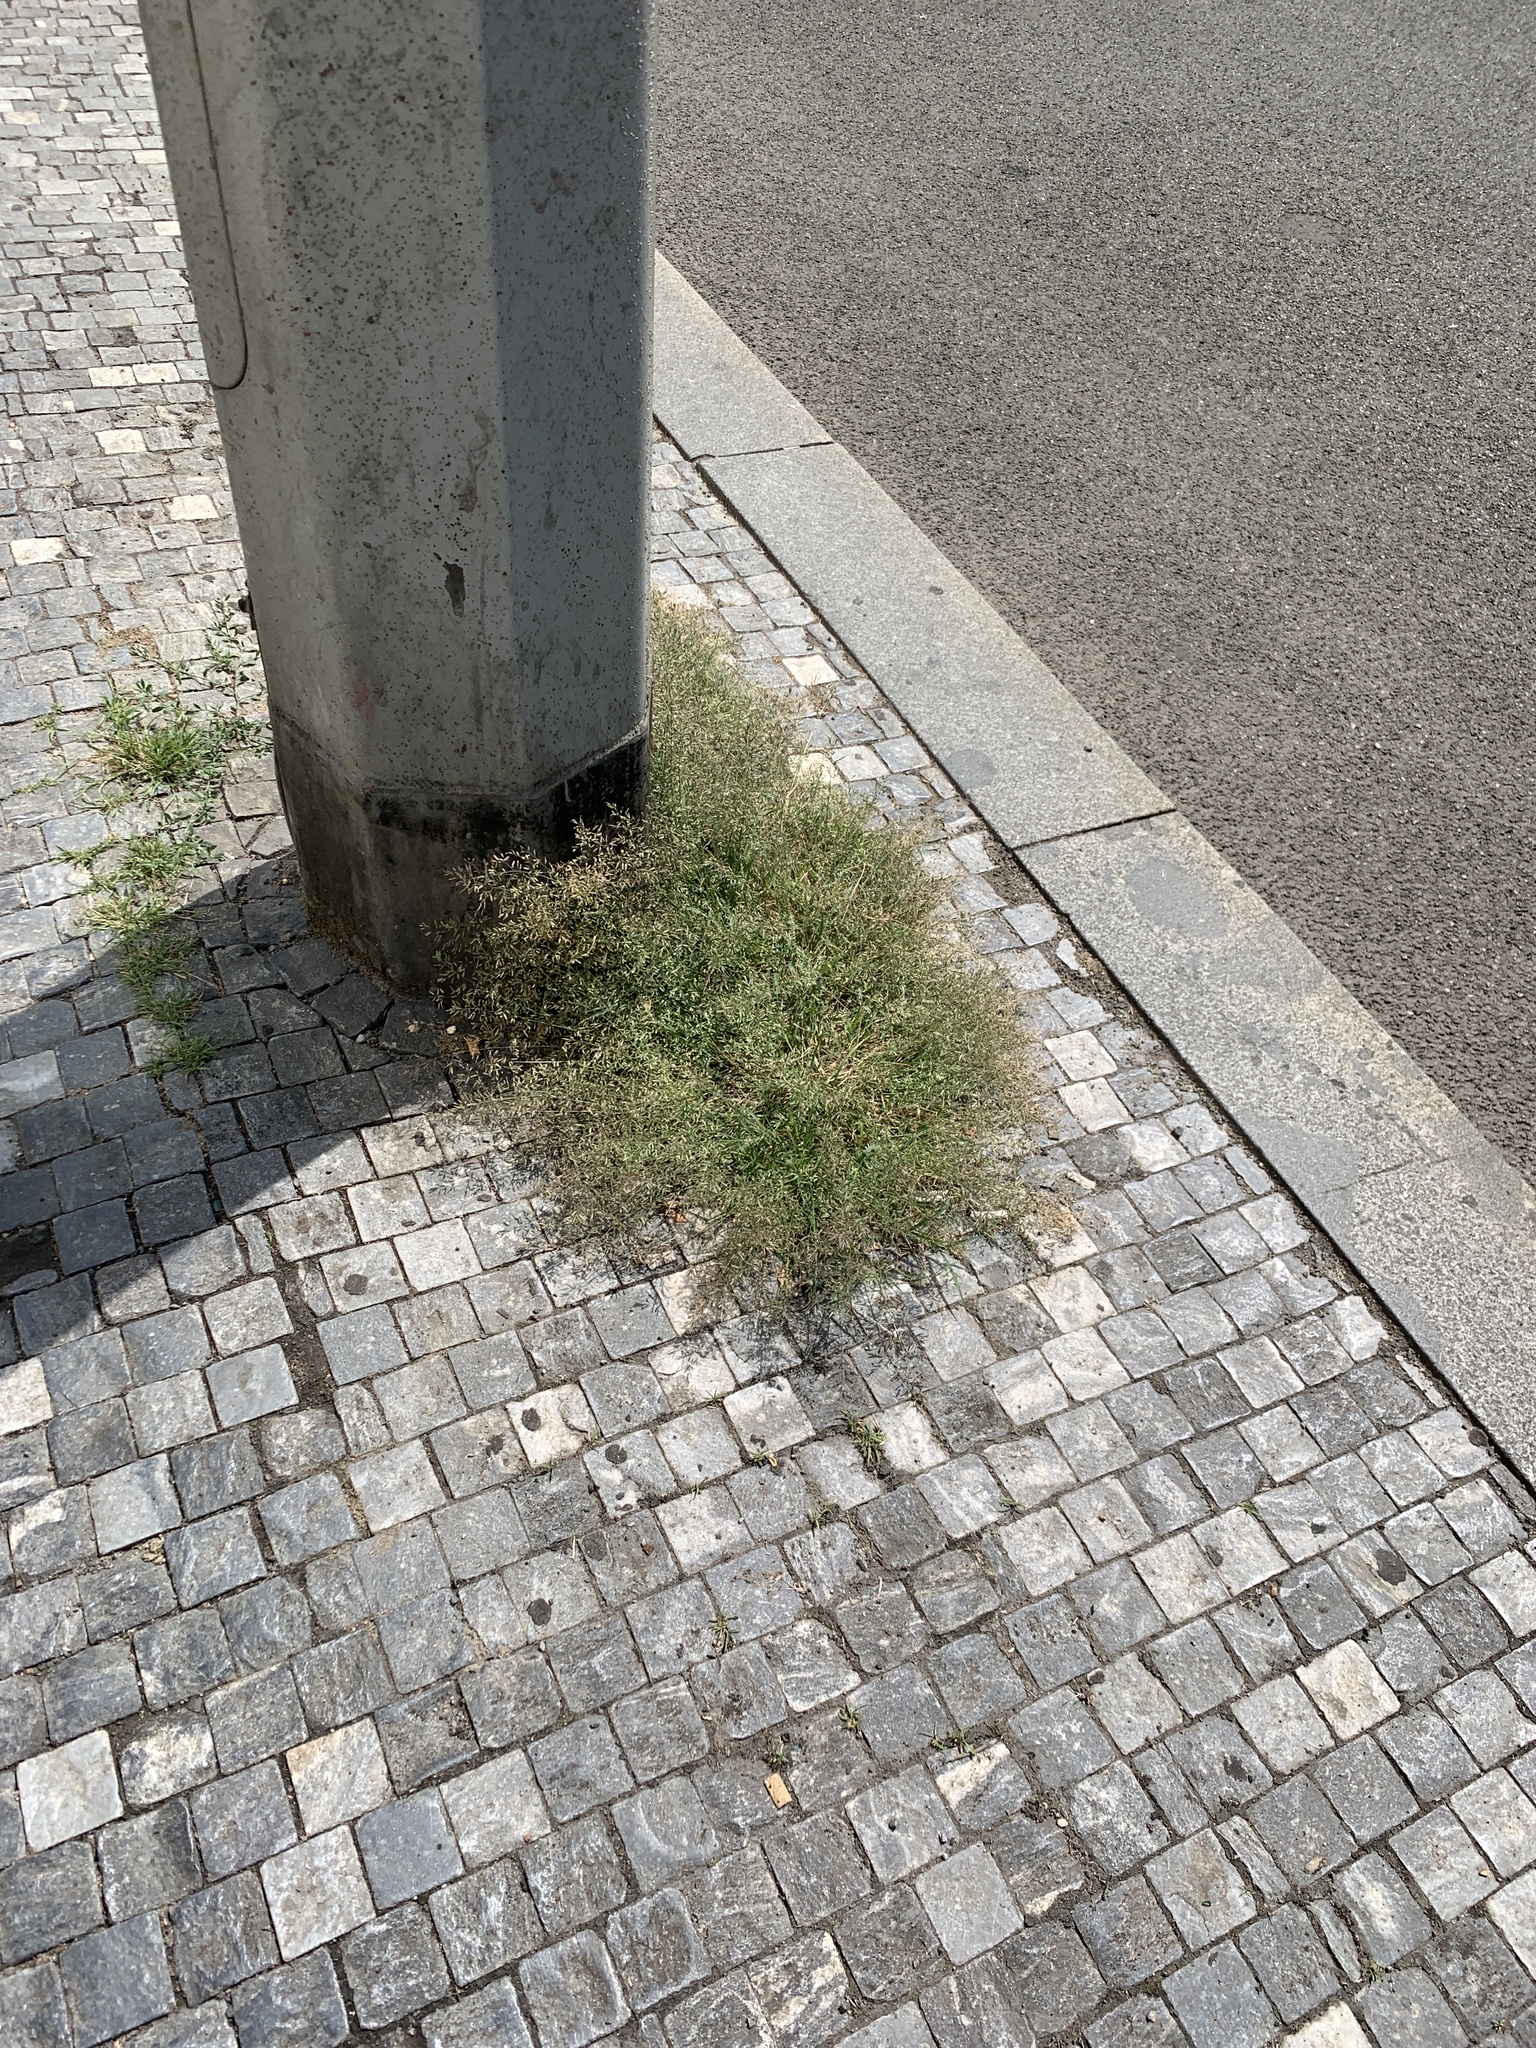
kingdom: Plantae
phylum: Tracheophyta
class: Liliopsida
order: Poales
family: Poaceae
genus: Eragrostis
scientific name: Eragrostis minor
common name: Small love-grass
